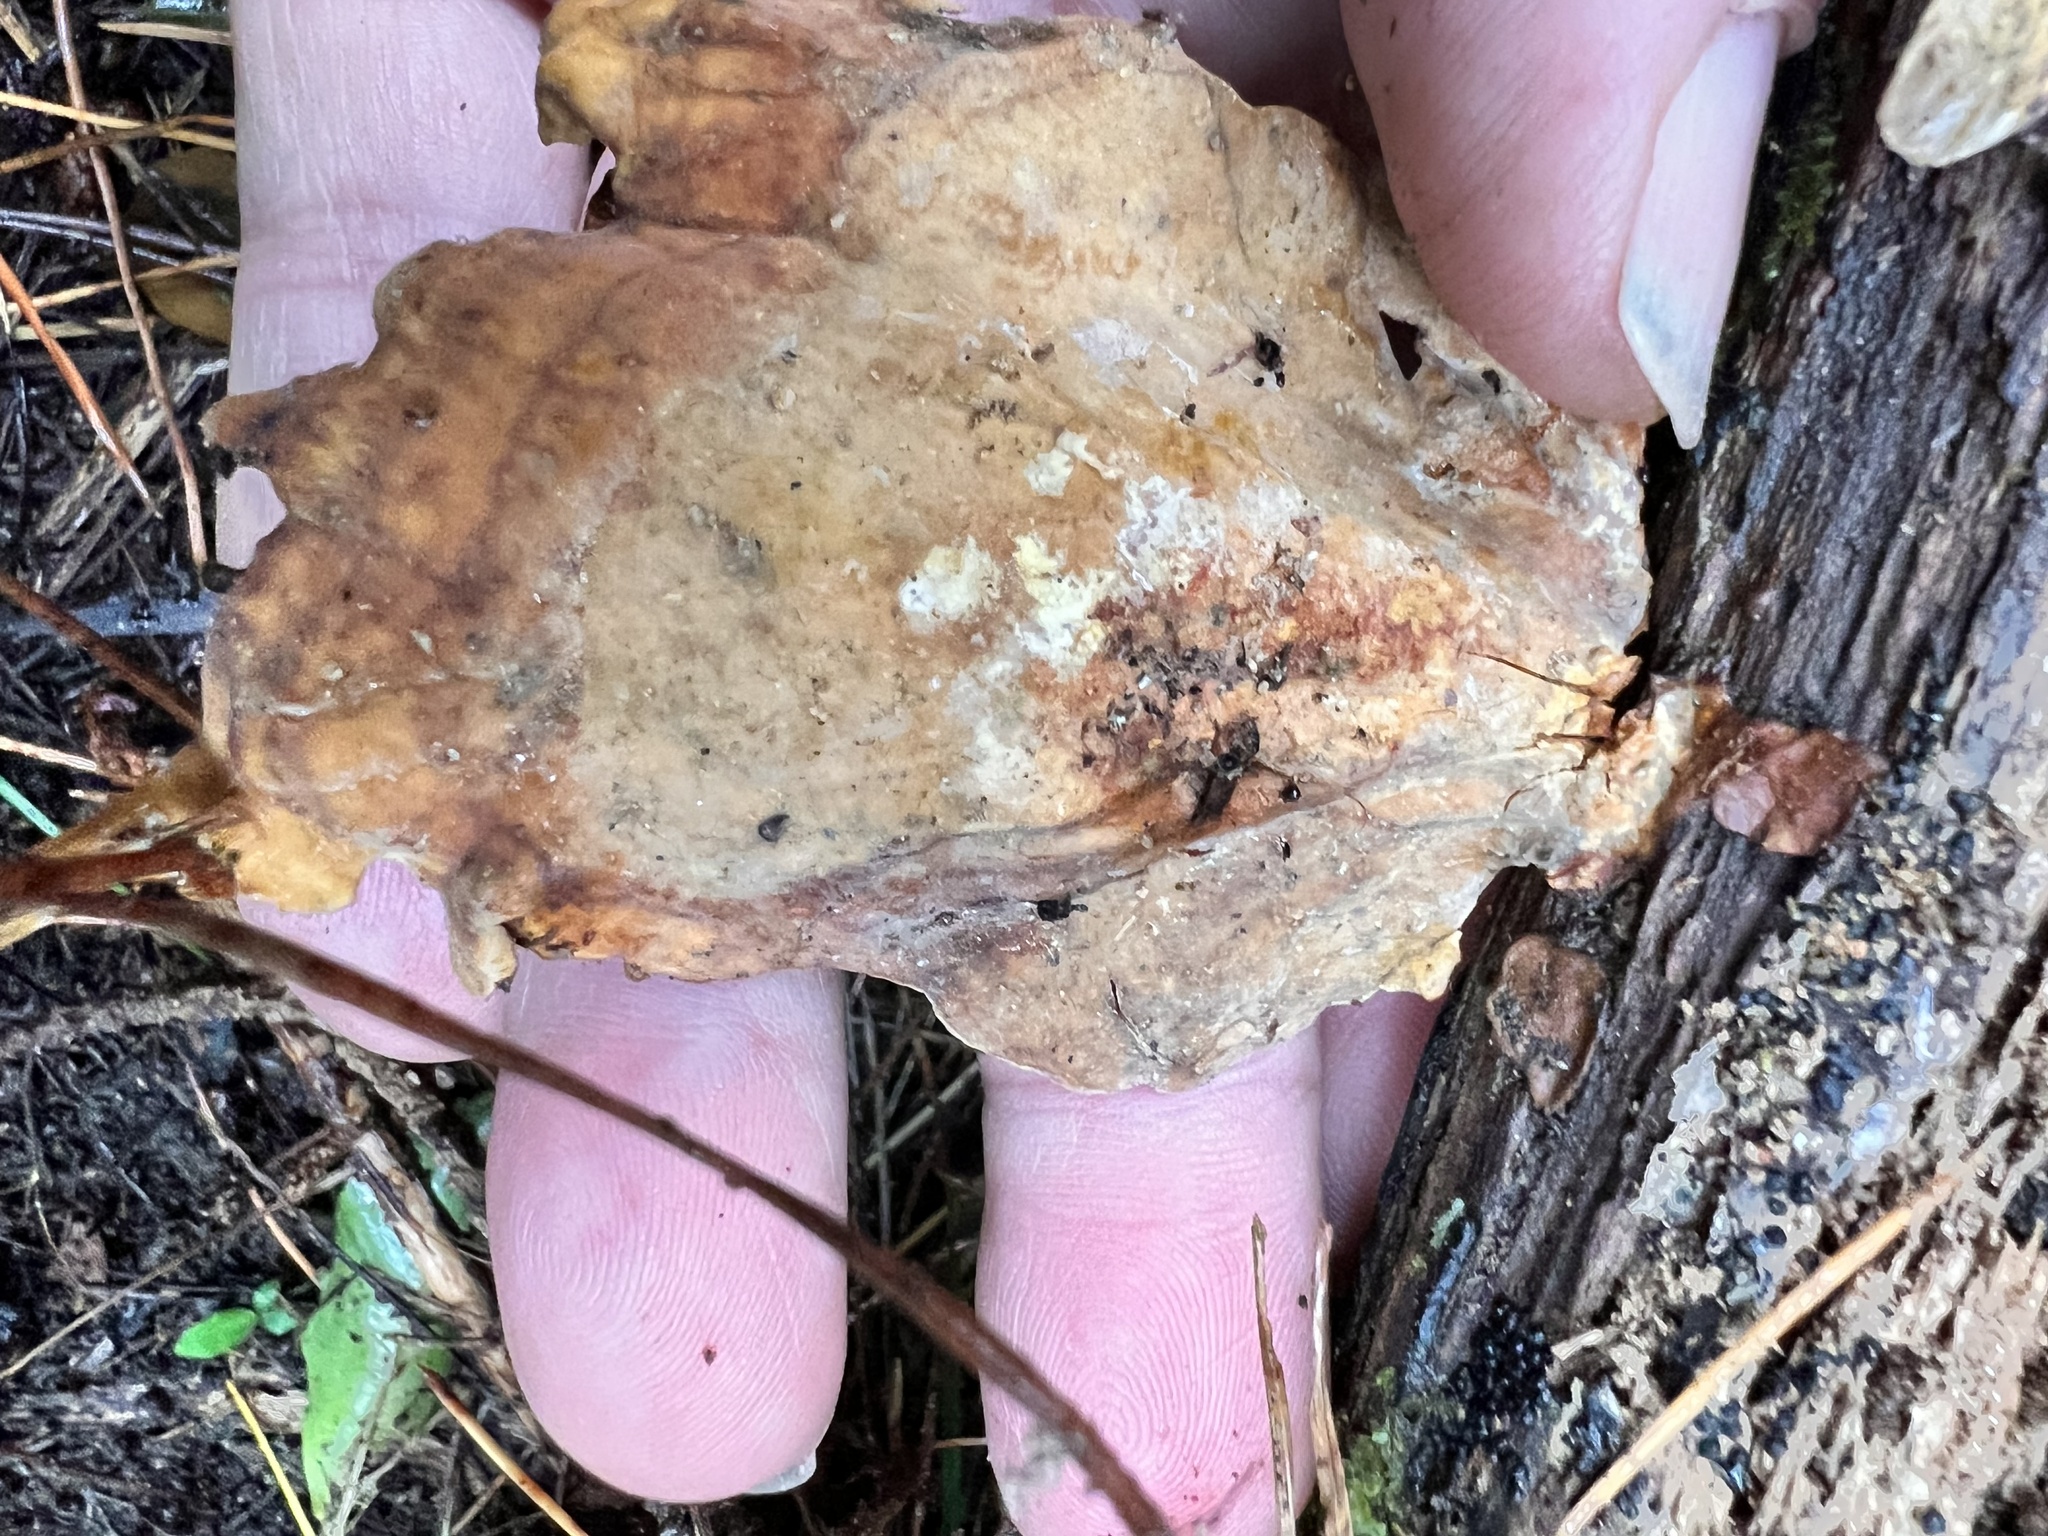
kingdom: Fungi
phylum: Basidiomycota
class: Agaricomycetes
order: Russulales
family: Stereaceae
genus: Stereum
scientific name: Stereum ostrea
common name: False turkeytail
